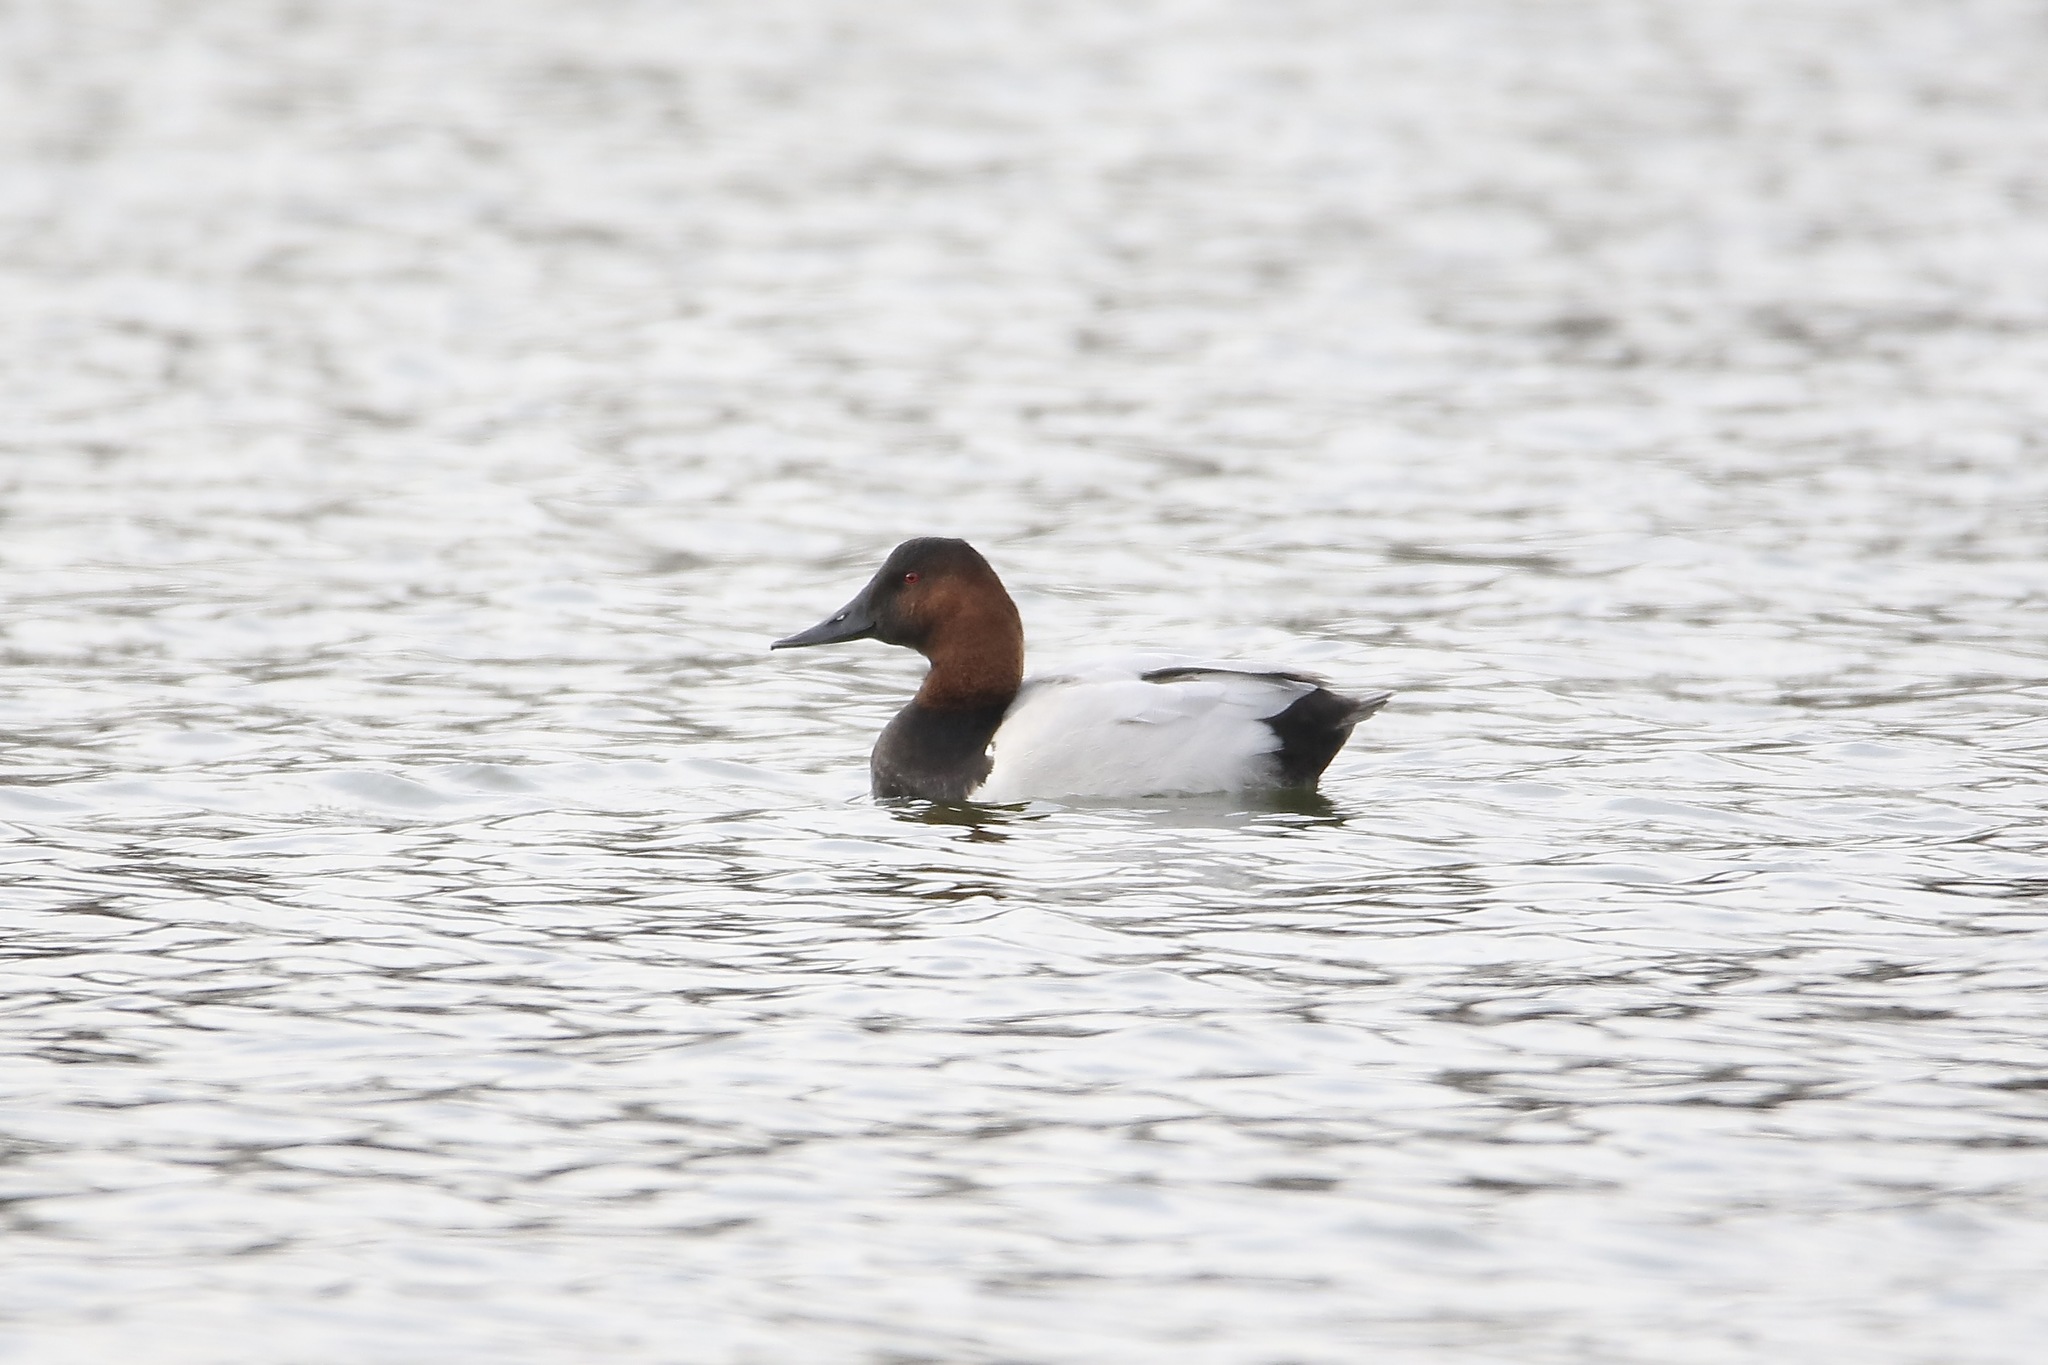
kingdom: Animalia
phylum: Chordata
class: Aves
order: Anseriformes
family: Anatidae
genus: Aythya
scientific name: Aythya valisineria
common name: Canvasback
